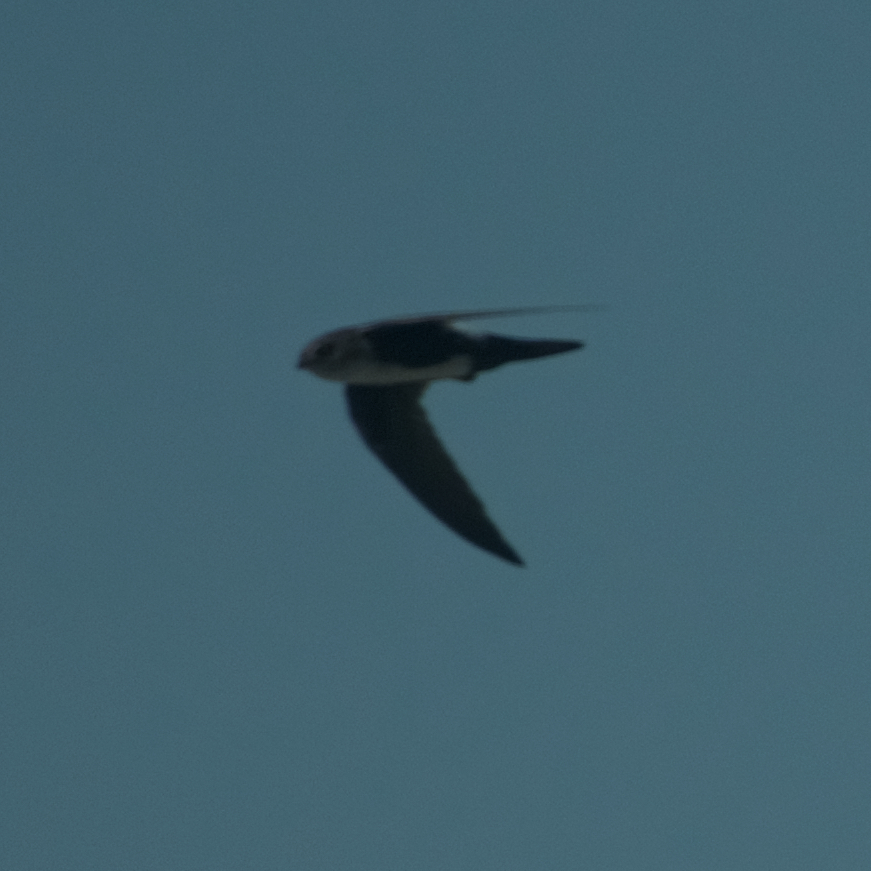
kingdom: Animalia
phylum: Chordata
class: Aves
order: Apodiformes
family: Apodidae
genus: Aeronautes
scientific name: Aeronautes saxatalis
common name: White-throated swift
